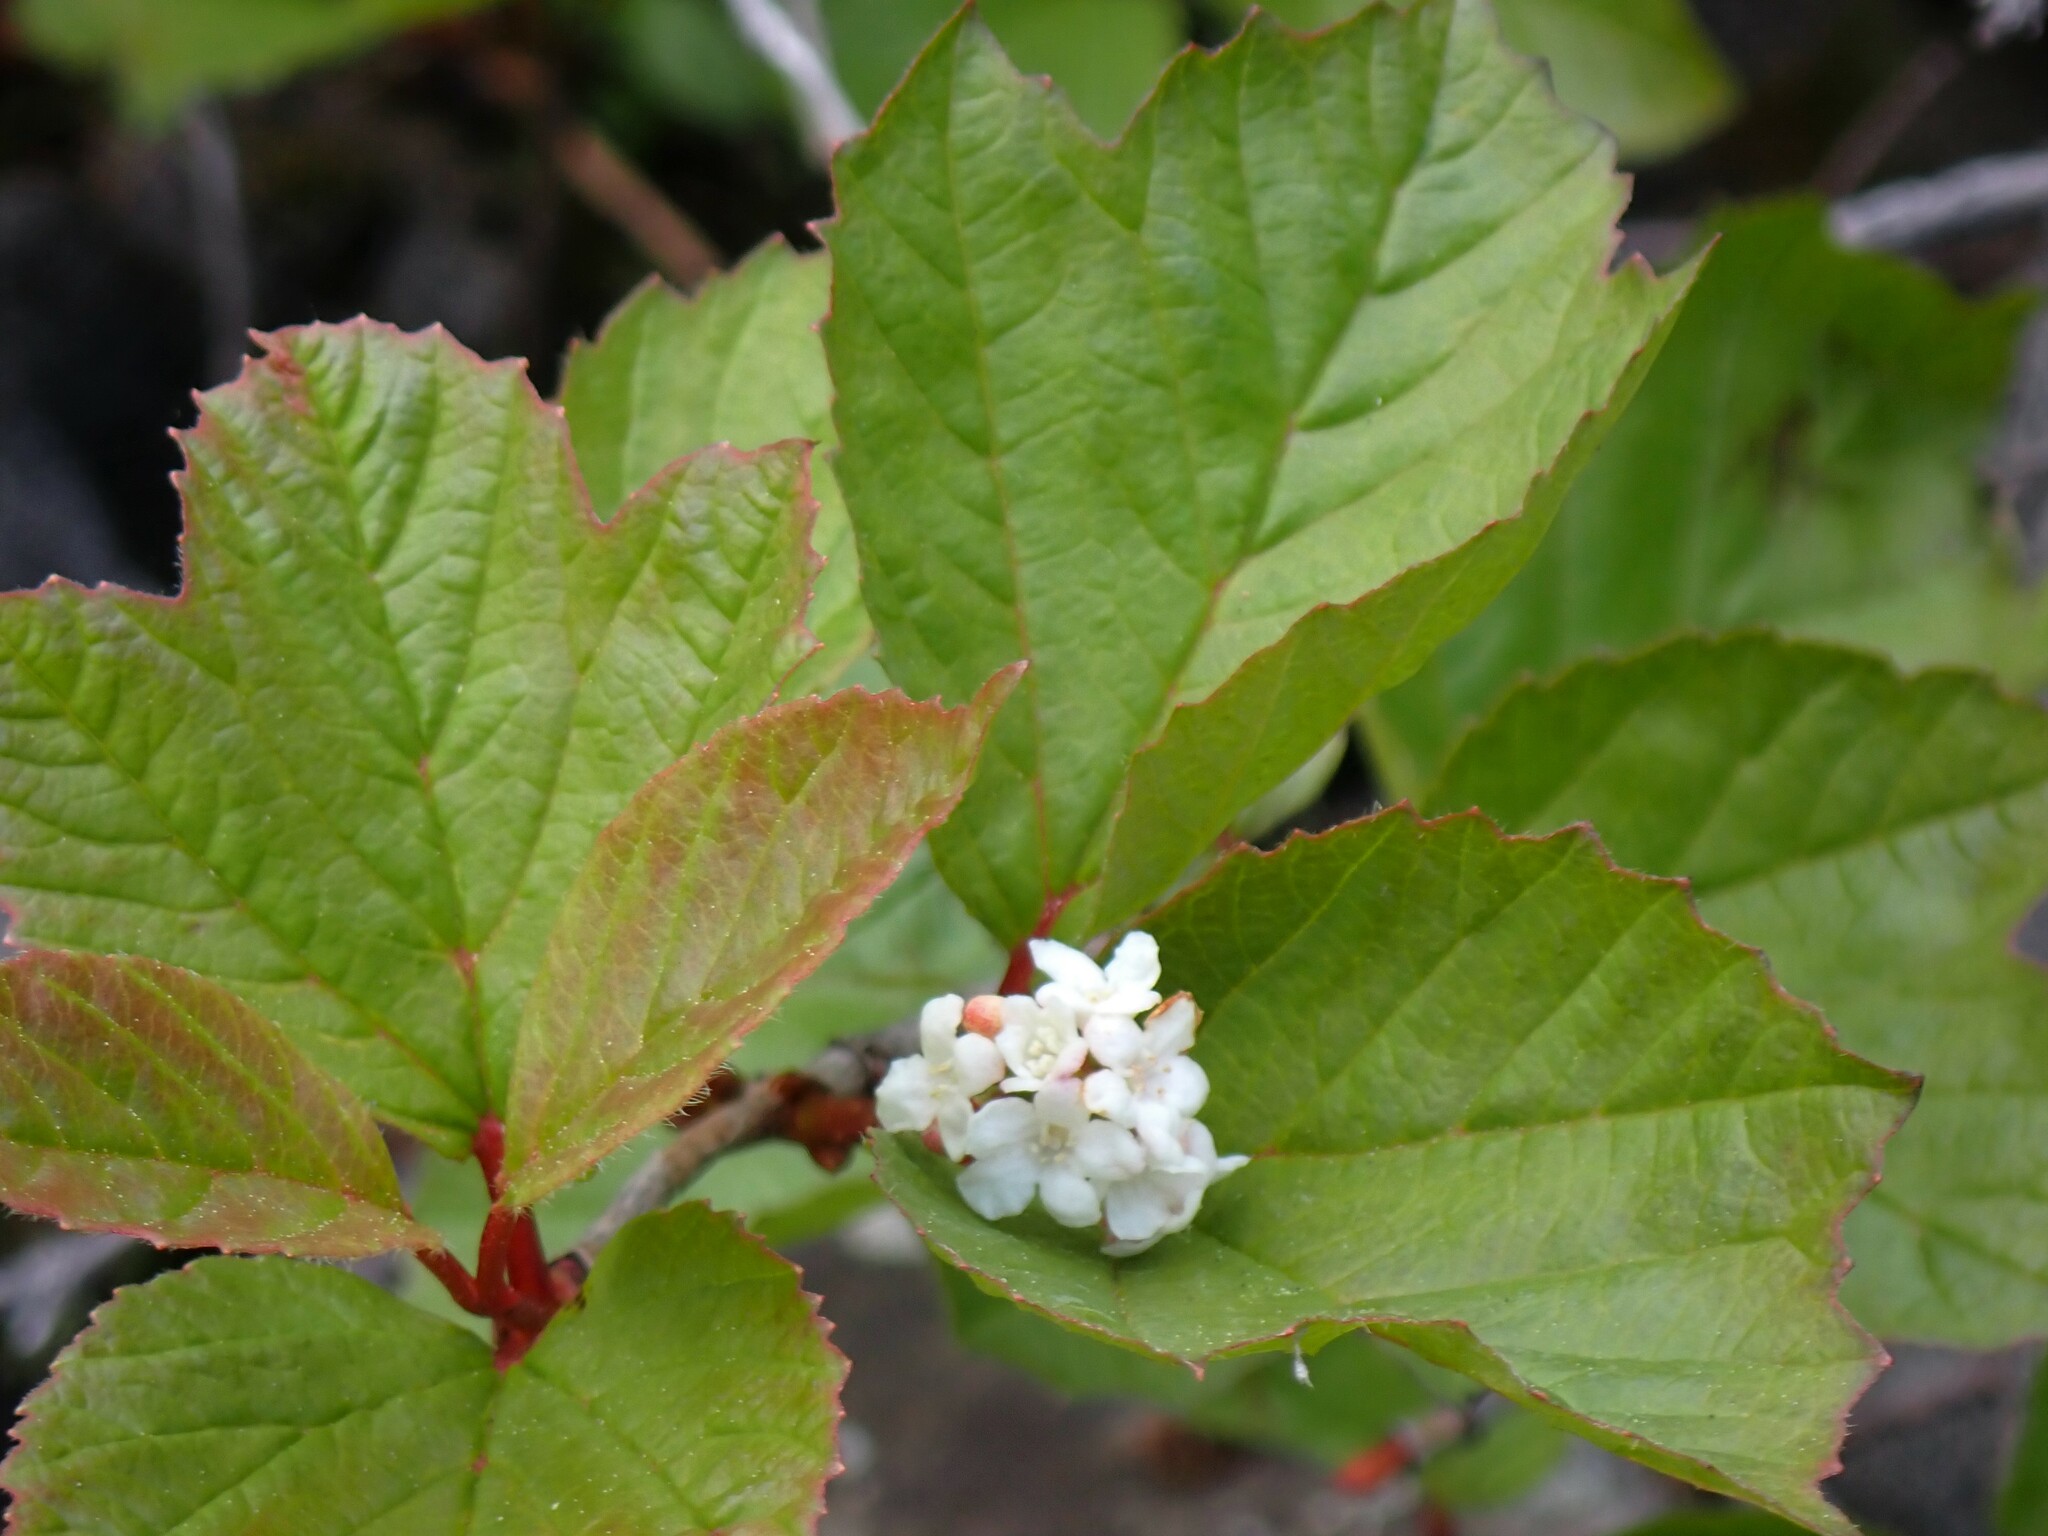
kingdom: Plantae
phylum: Tracheophyta
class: Magnoliopsida
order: Dipsacales
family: Viburnaceae
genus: Viburnum
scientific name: Viburnum edule
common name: Mooseberry
